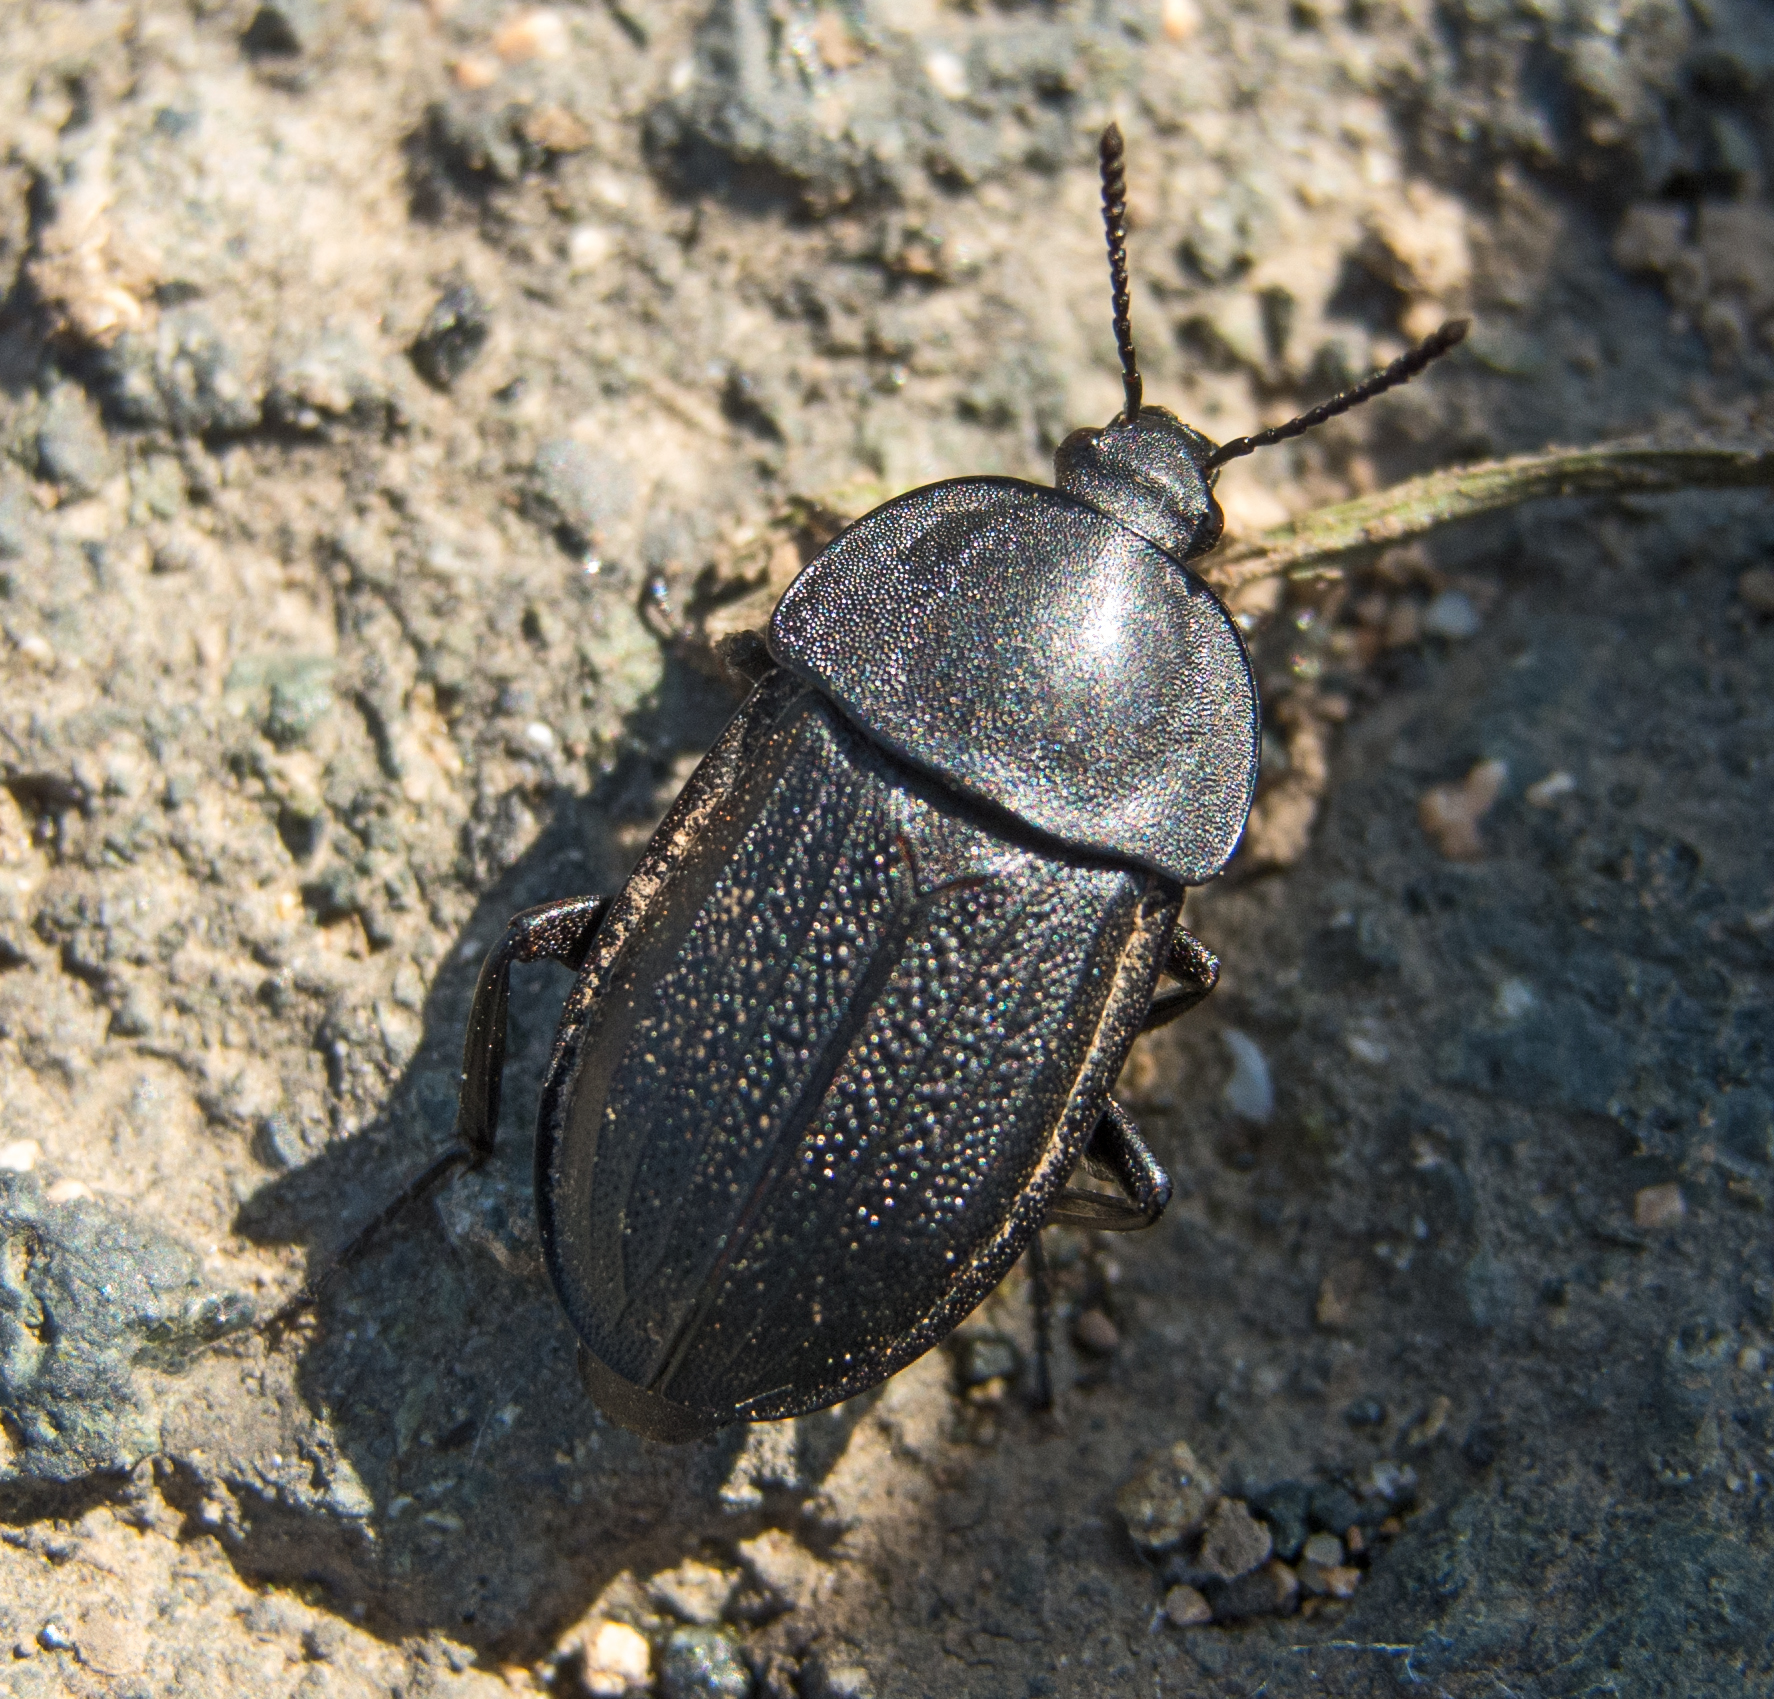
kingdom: Animalia
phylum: Arthropoda
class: Insecta
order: Coleoptera
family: Staphylinidae
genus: Silpha
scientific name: Silpha obscura
